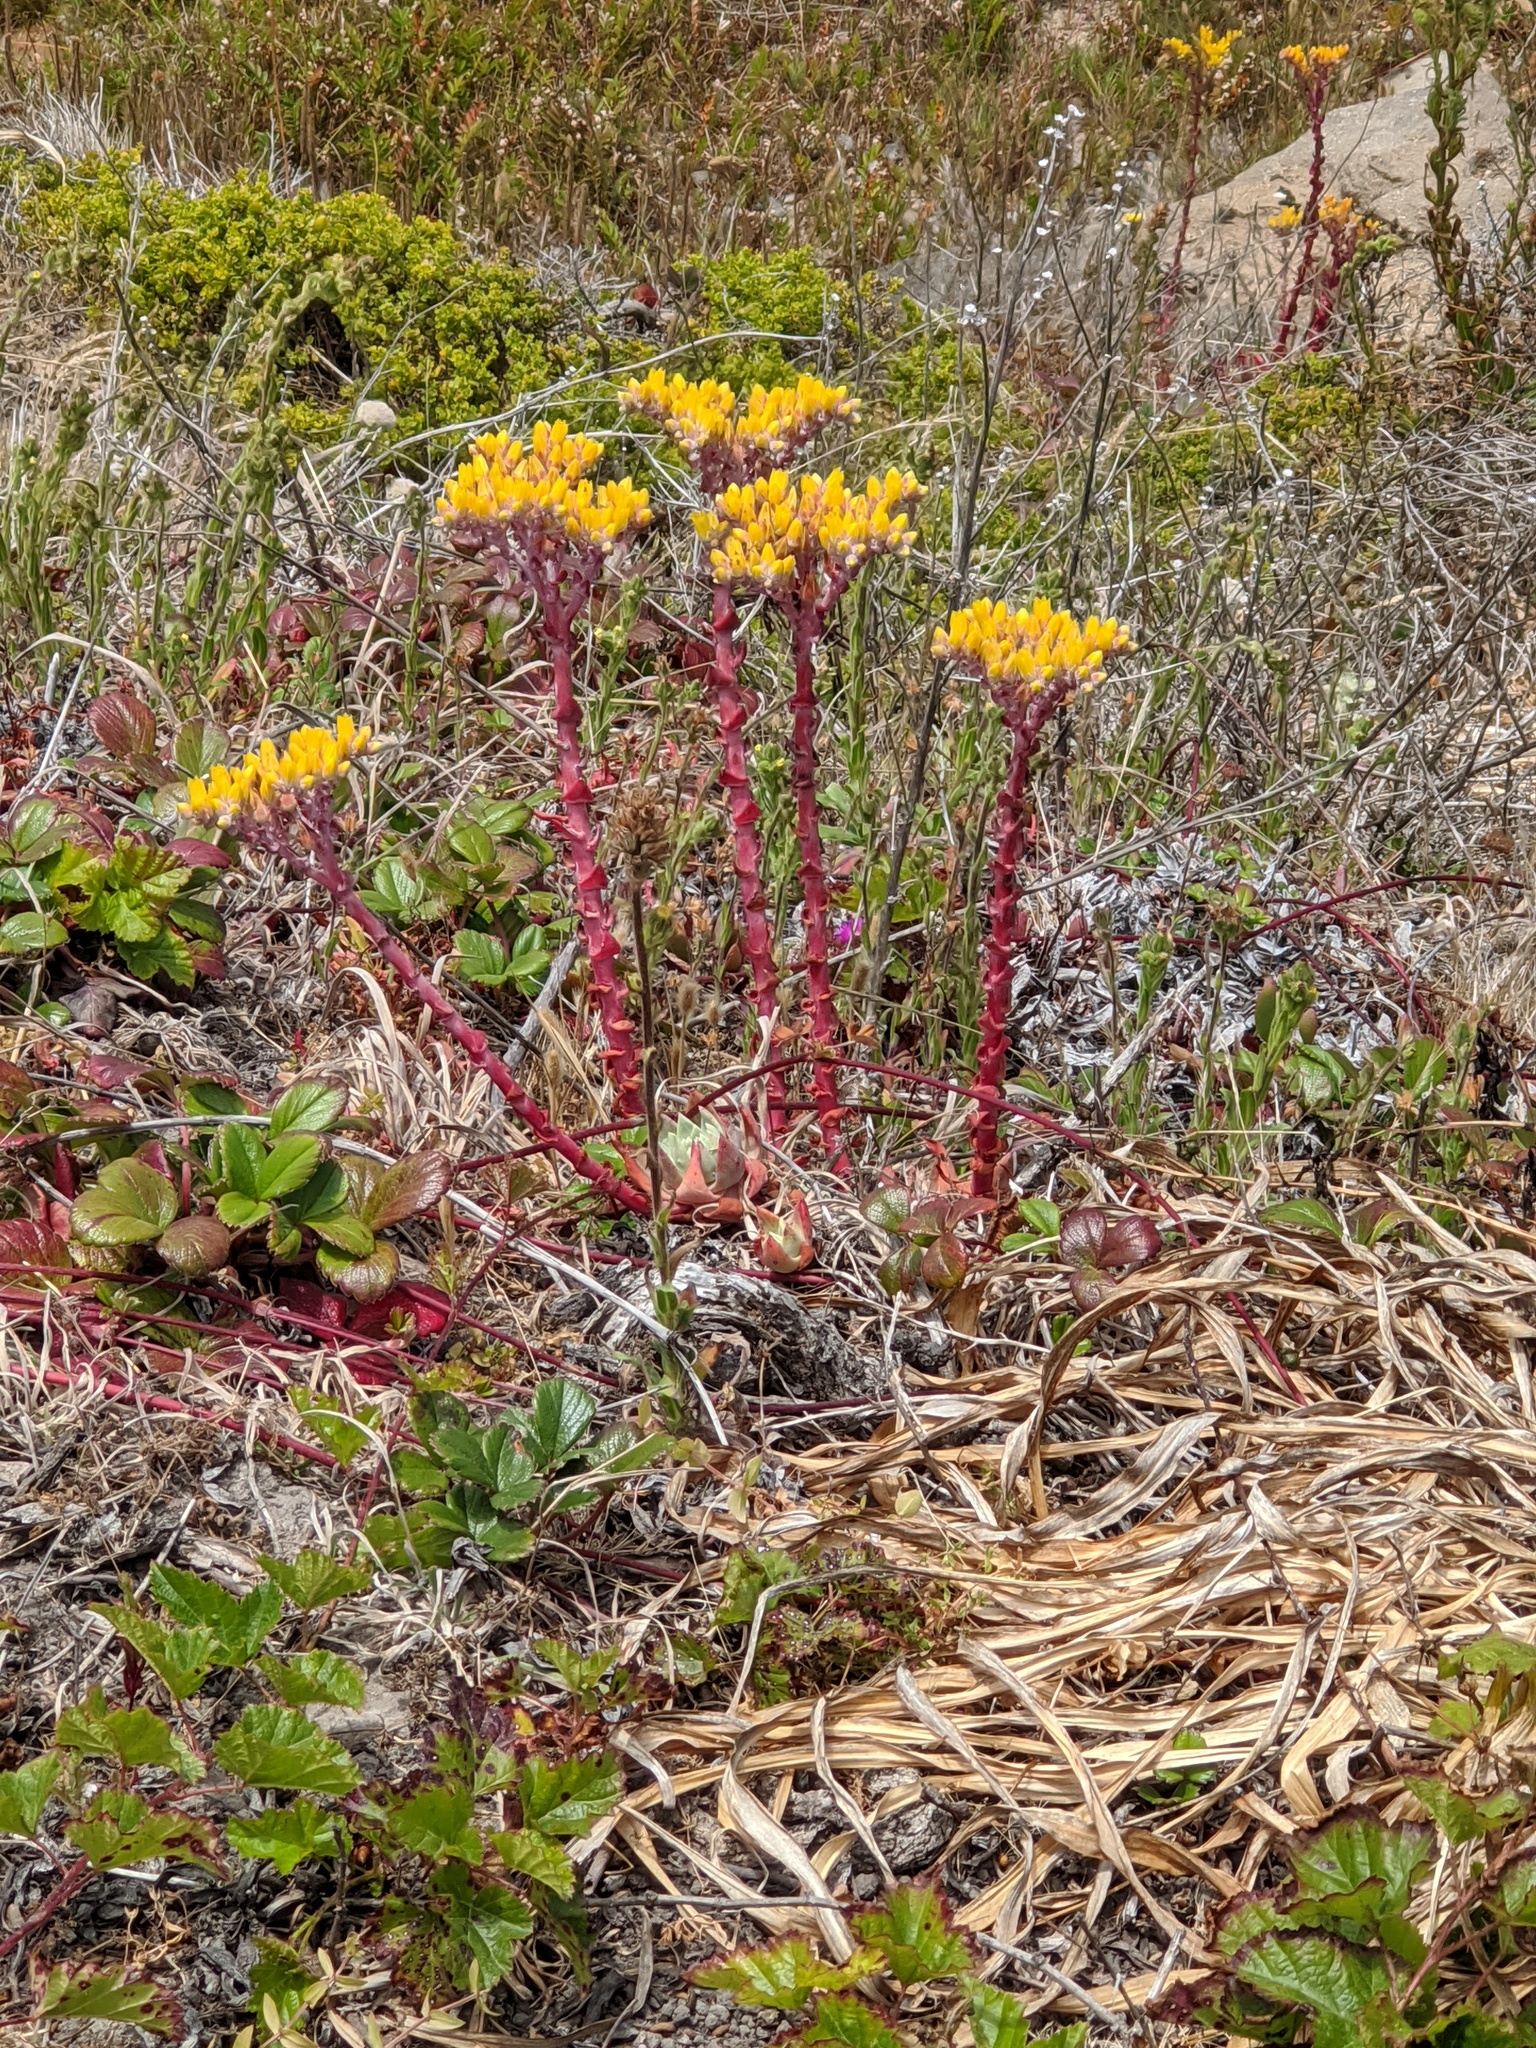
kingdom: Plantae
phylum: Tracheophyta
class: Magnoliopsida
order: Saxifragales
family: Crassulaceae
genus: Dudleya
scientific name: Dudleya caespitosa
